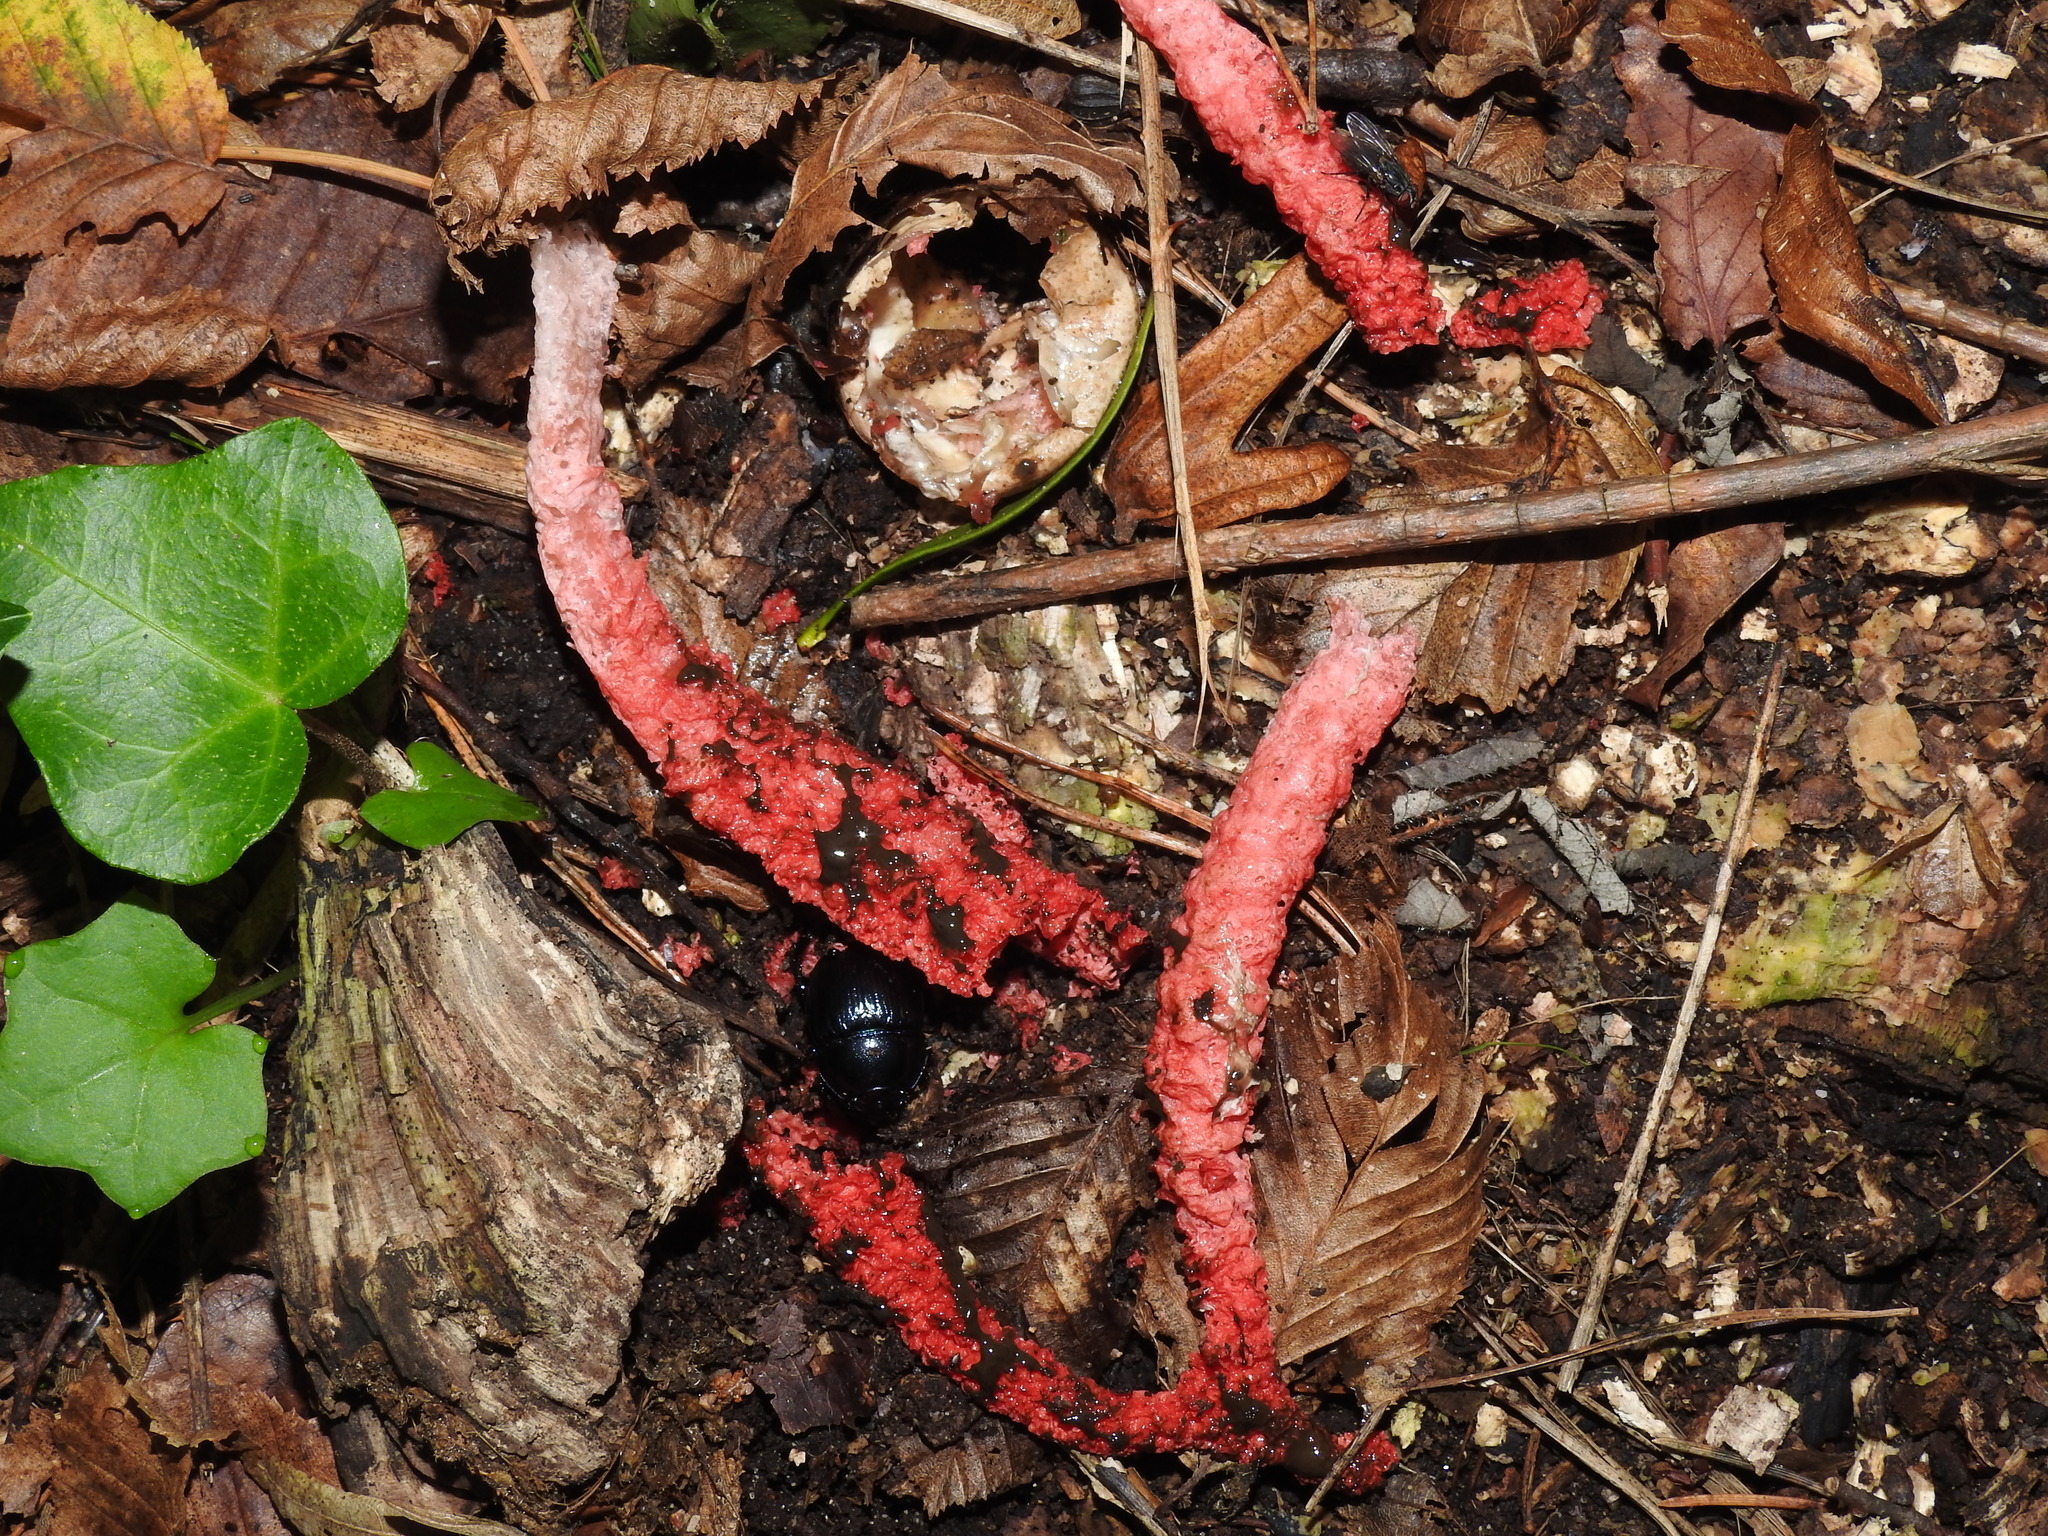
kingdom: Fungi
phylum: Basidiomycota
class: Agaricomycetes
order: Phallales
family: Phallaceae
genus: Clathrus
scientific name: Clathrus archeri
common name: Devil's fingers
